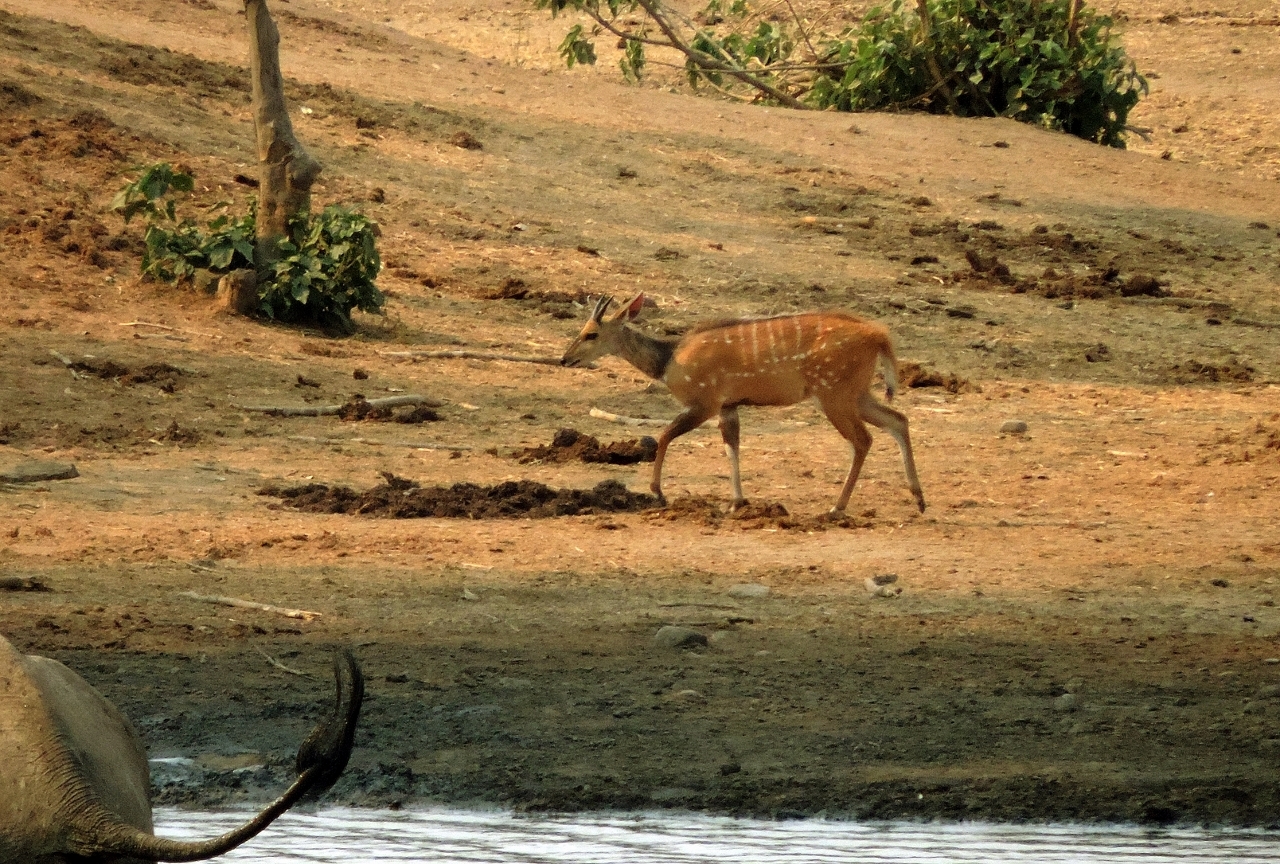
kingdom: Animalia
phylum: Chordata
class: Mammalia
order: Artiodactyla
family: Bovidae
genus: Tragelaphus
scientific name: Tragelaphus scriptus
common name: Bushbuck
